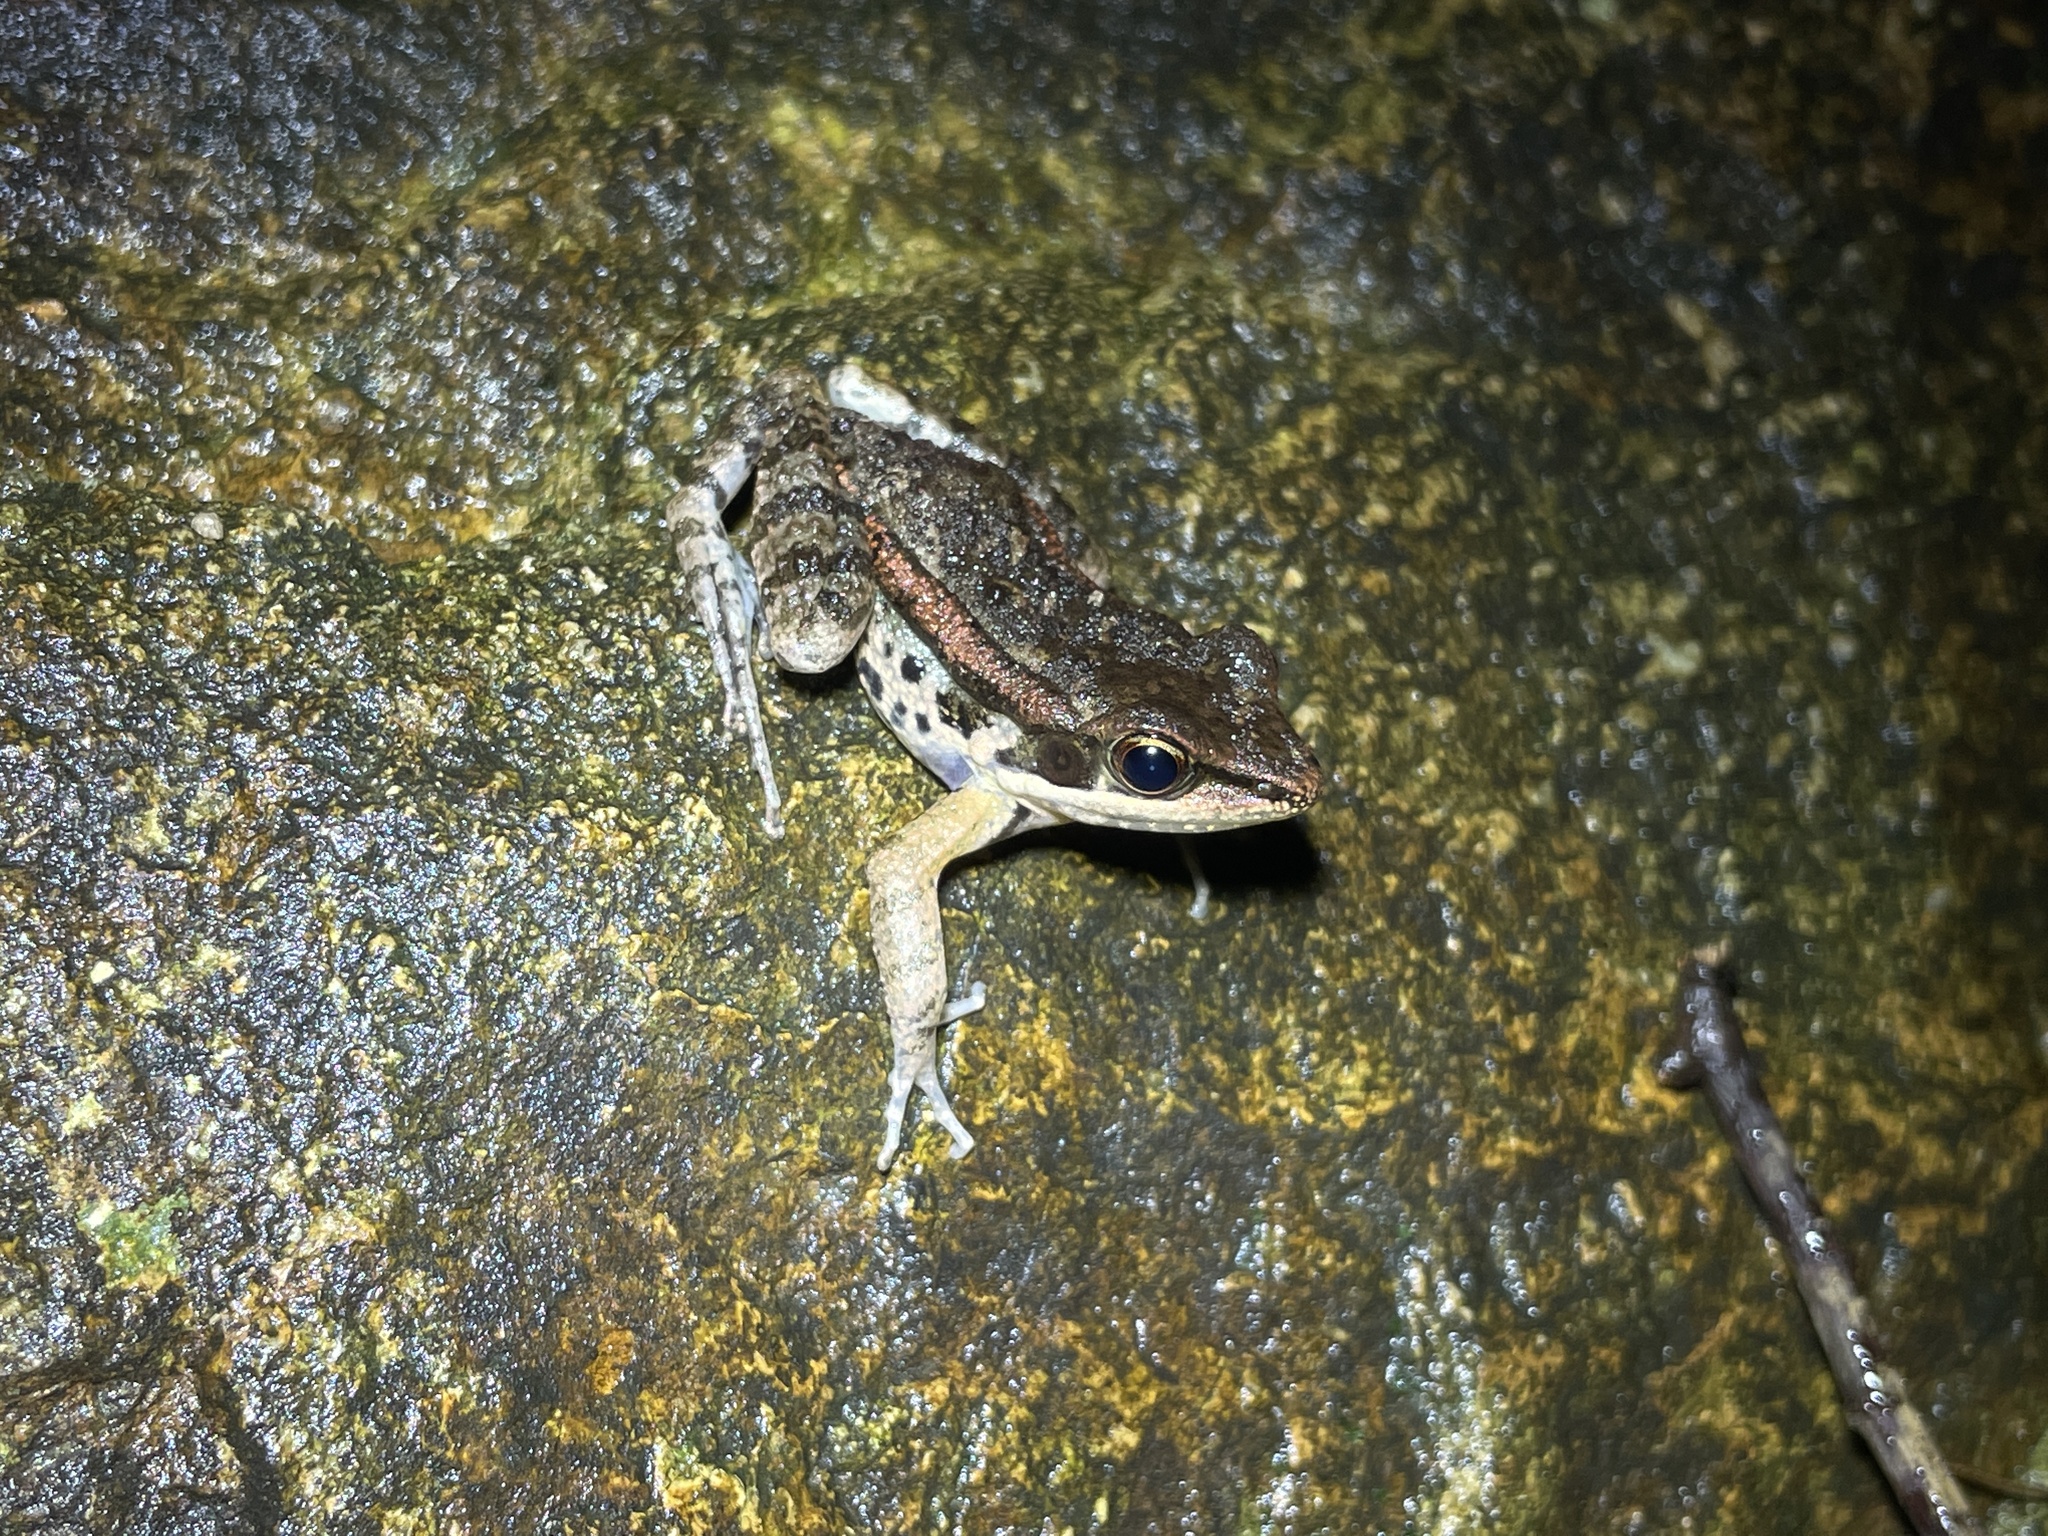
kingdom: Animalia
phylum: Chordata
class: Amphibia
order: Anura
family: Ranidae
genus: Hylarana
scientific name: Hylarana latouchii
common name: Broad-folded frog
